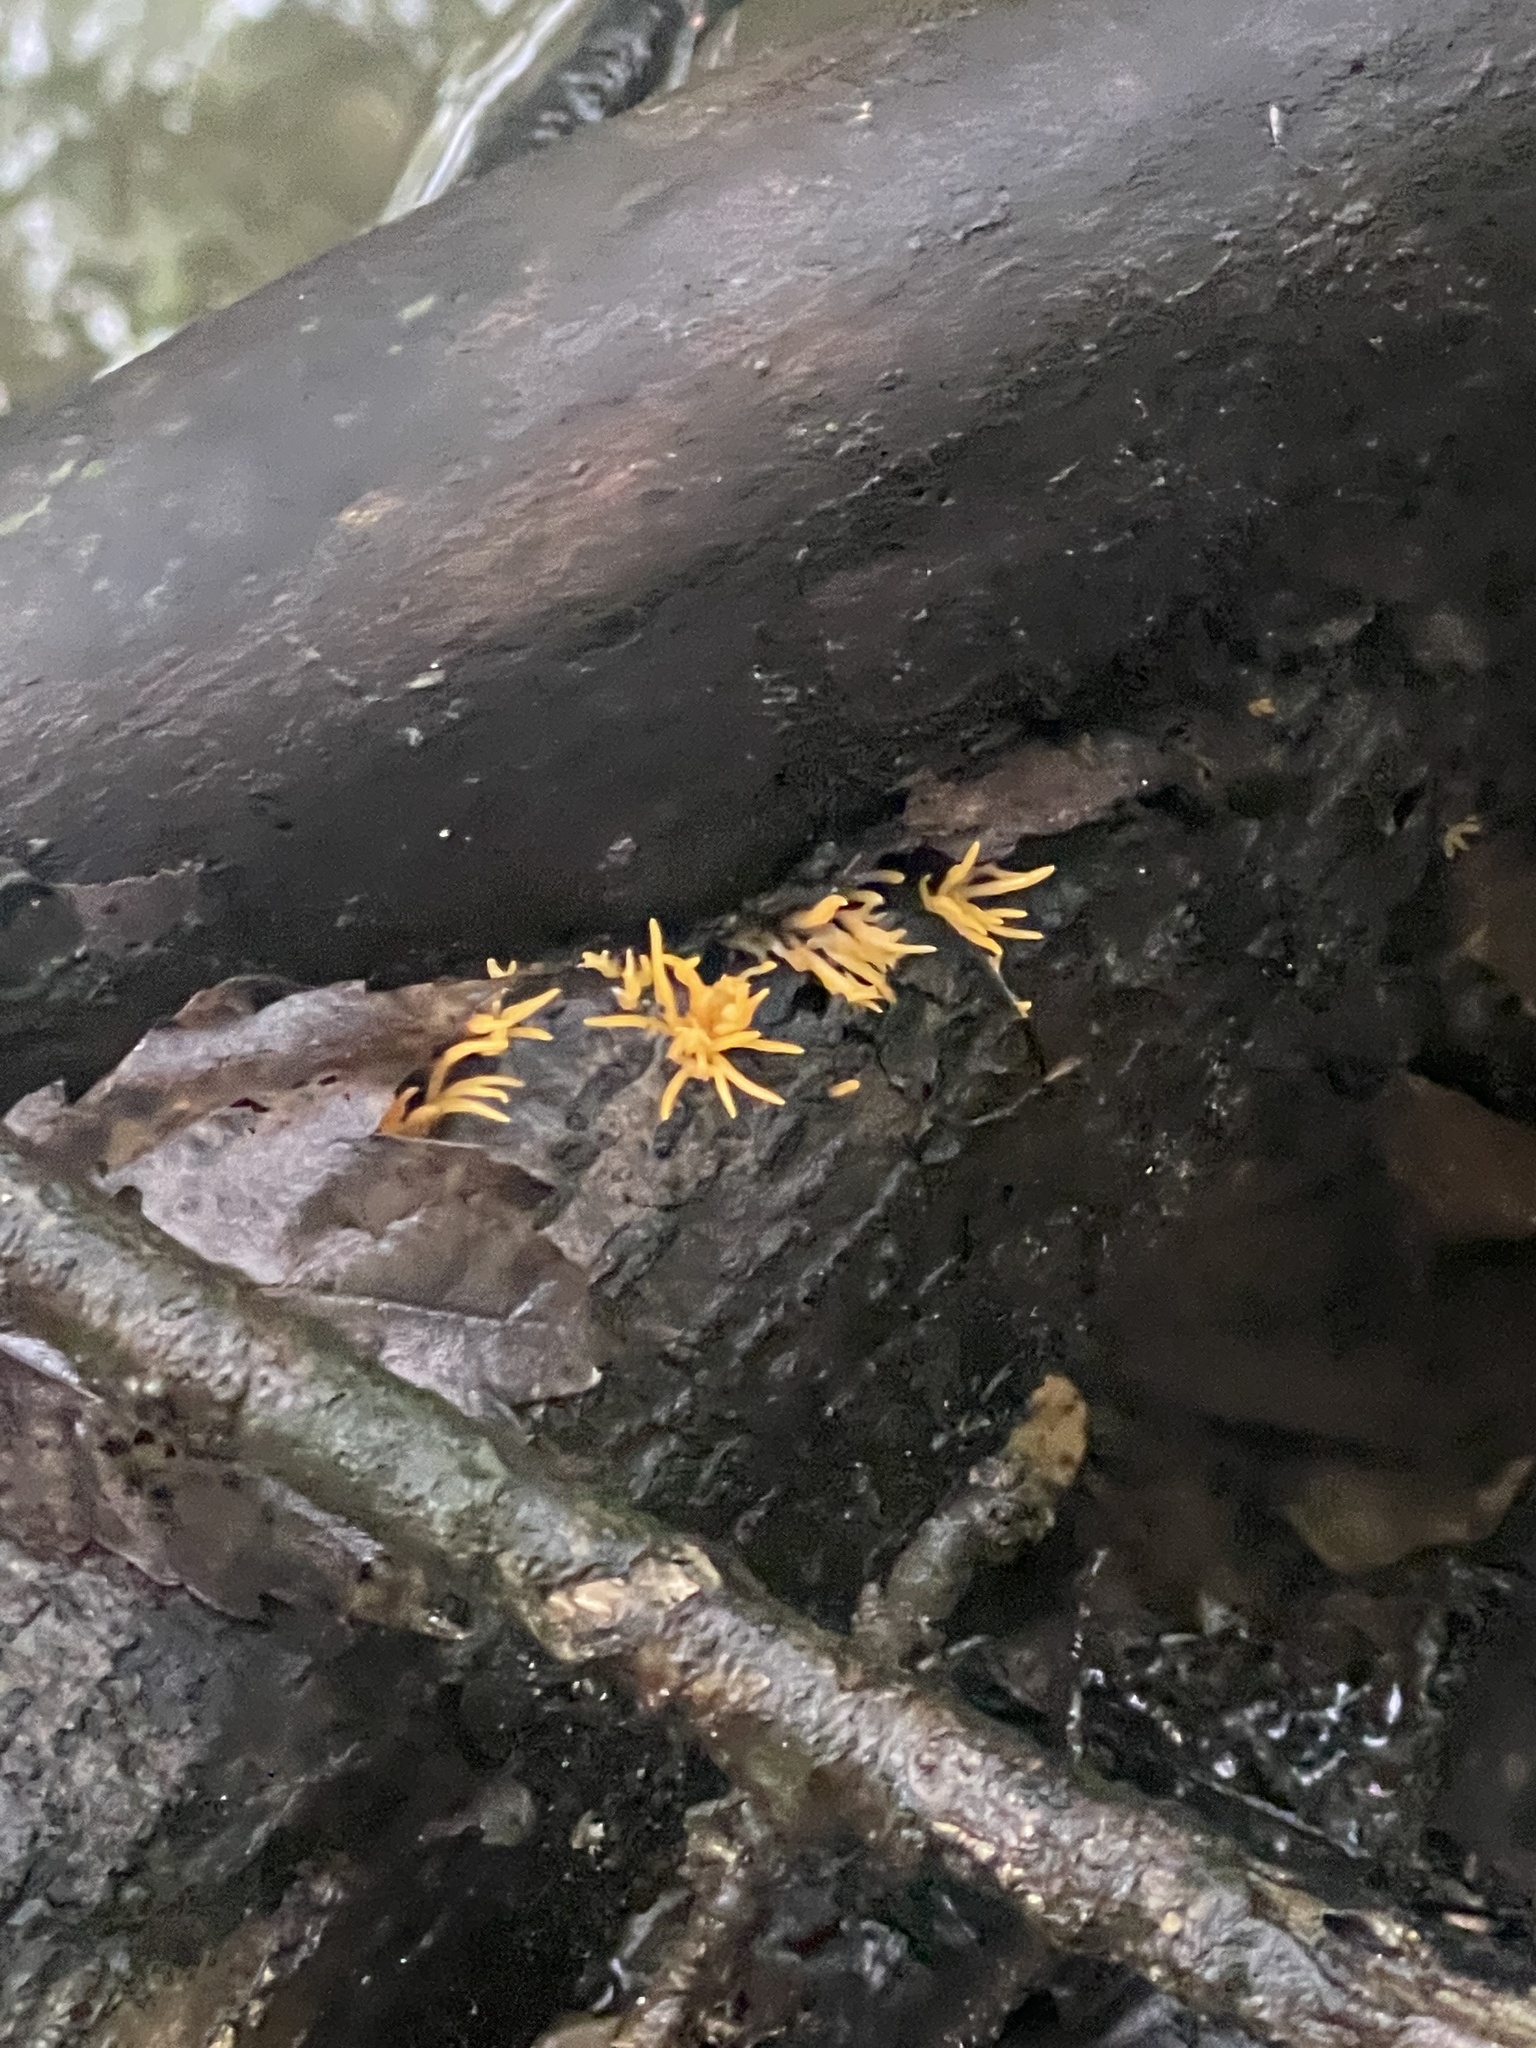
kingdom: Fungi
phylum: Basidiomycota
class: Dacrymycetes
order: Dacrymycetales
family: Dacrymycetaceae
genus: Calocera
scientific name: Calocera cornea
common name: Small stagshorn
